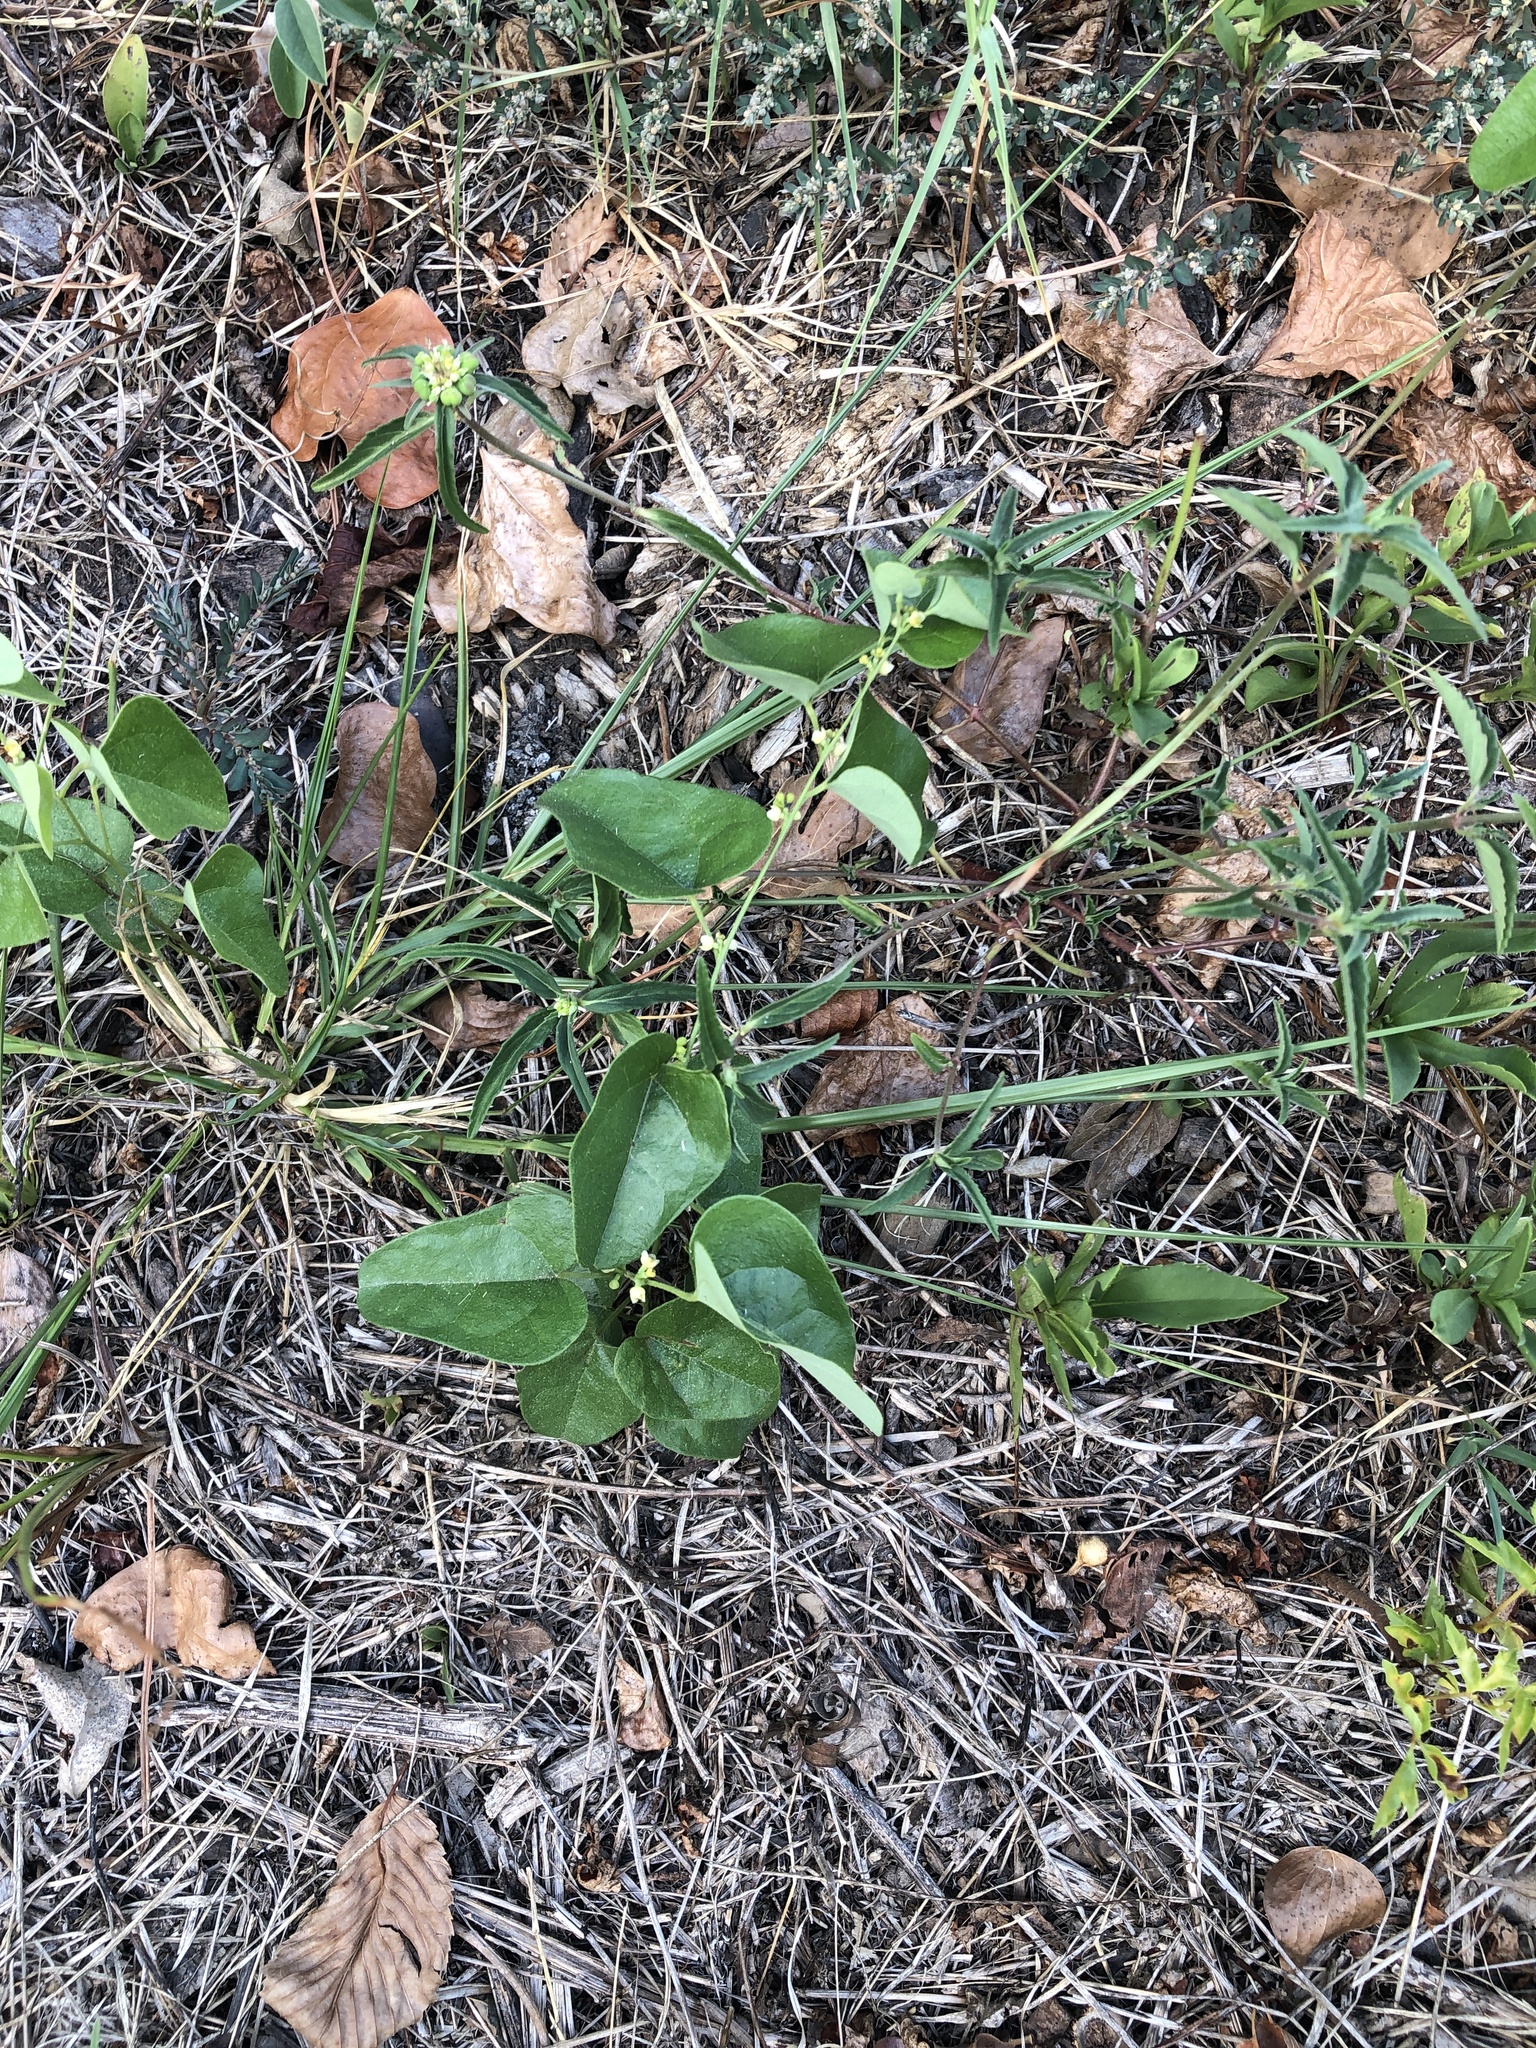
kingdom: Plantae
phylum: Tracheophyta
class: Magnoliopsida
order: Ranunculales
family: Menispermaceae
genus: Cocculus
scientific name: Cocculus carolinus
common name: Carolina moonseed
